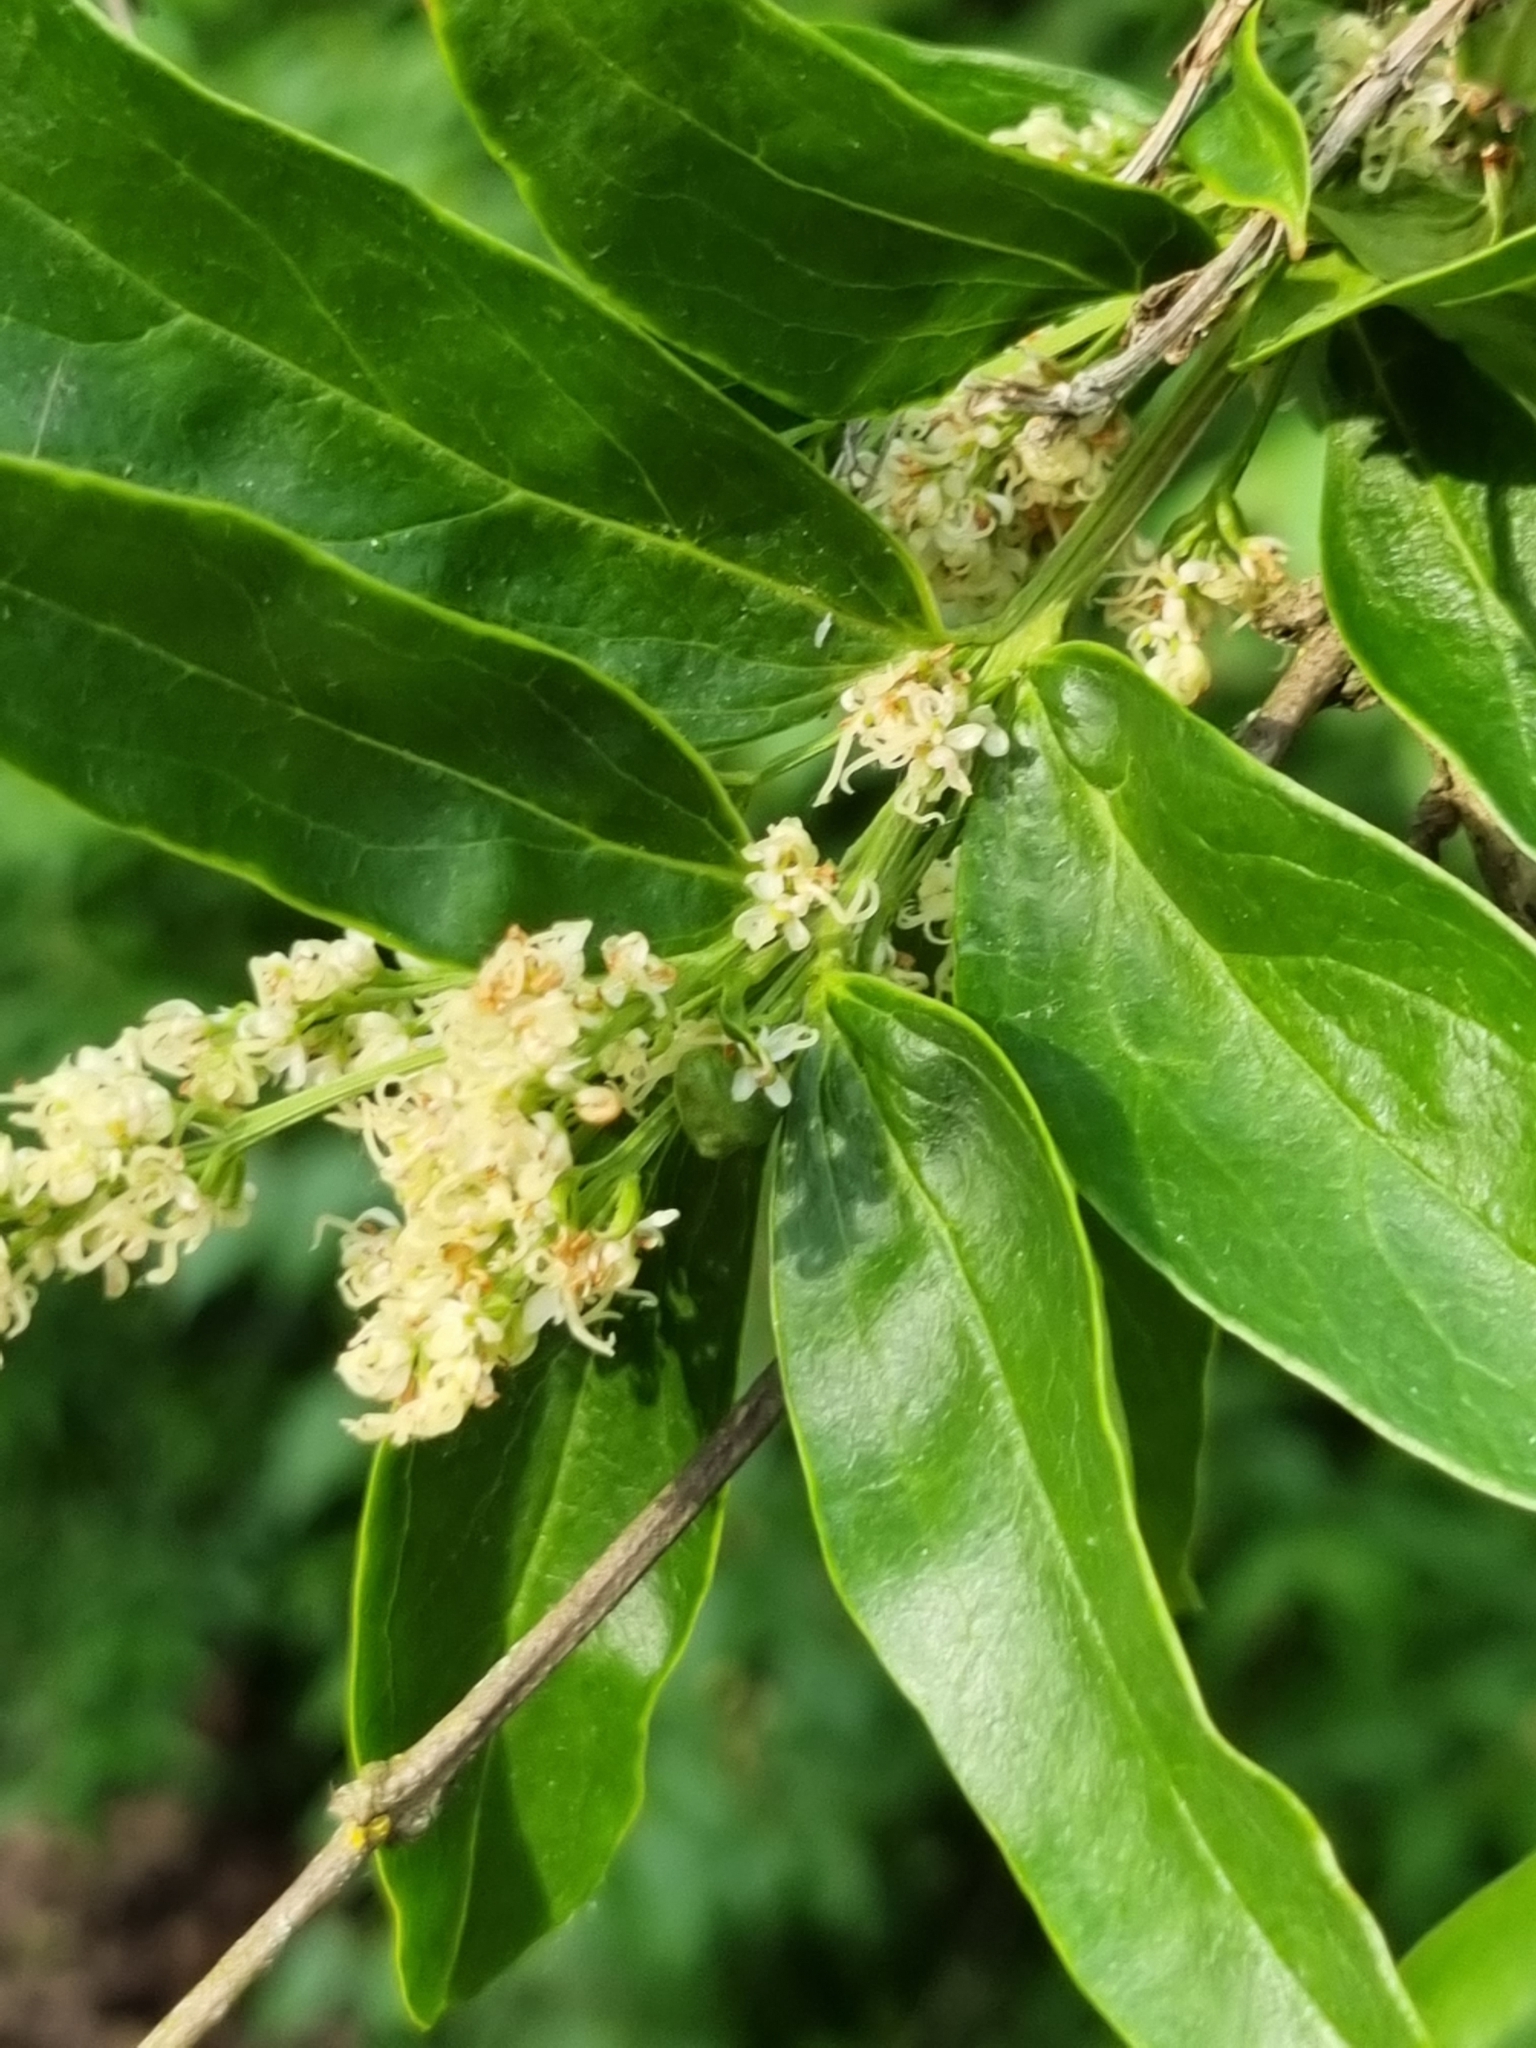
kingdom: Plantae
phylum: Tracheophyta
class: Magnoliopsida
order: Lamiales
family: Oleaceae
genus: Ligustrum
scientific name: Ligustrum vulgare
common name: Wild privet
